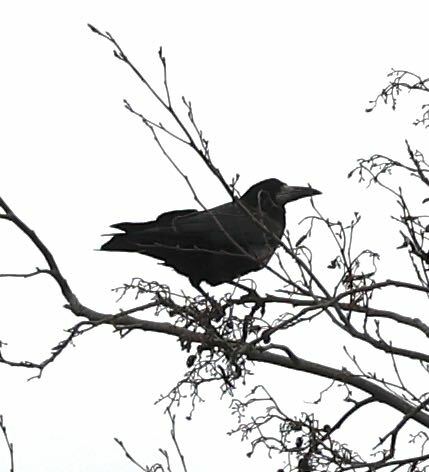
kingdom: Animalia
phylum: Chordata
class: Aves
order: Passeriformes
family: Corvidae
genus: Corvus
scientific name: Corvus frugilegus
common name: Rook
